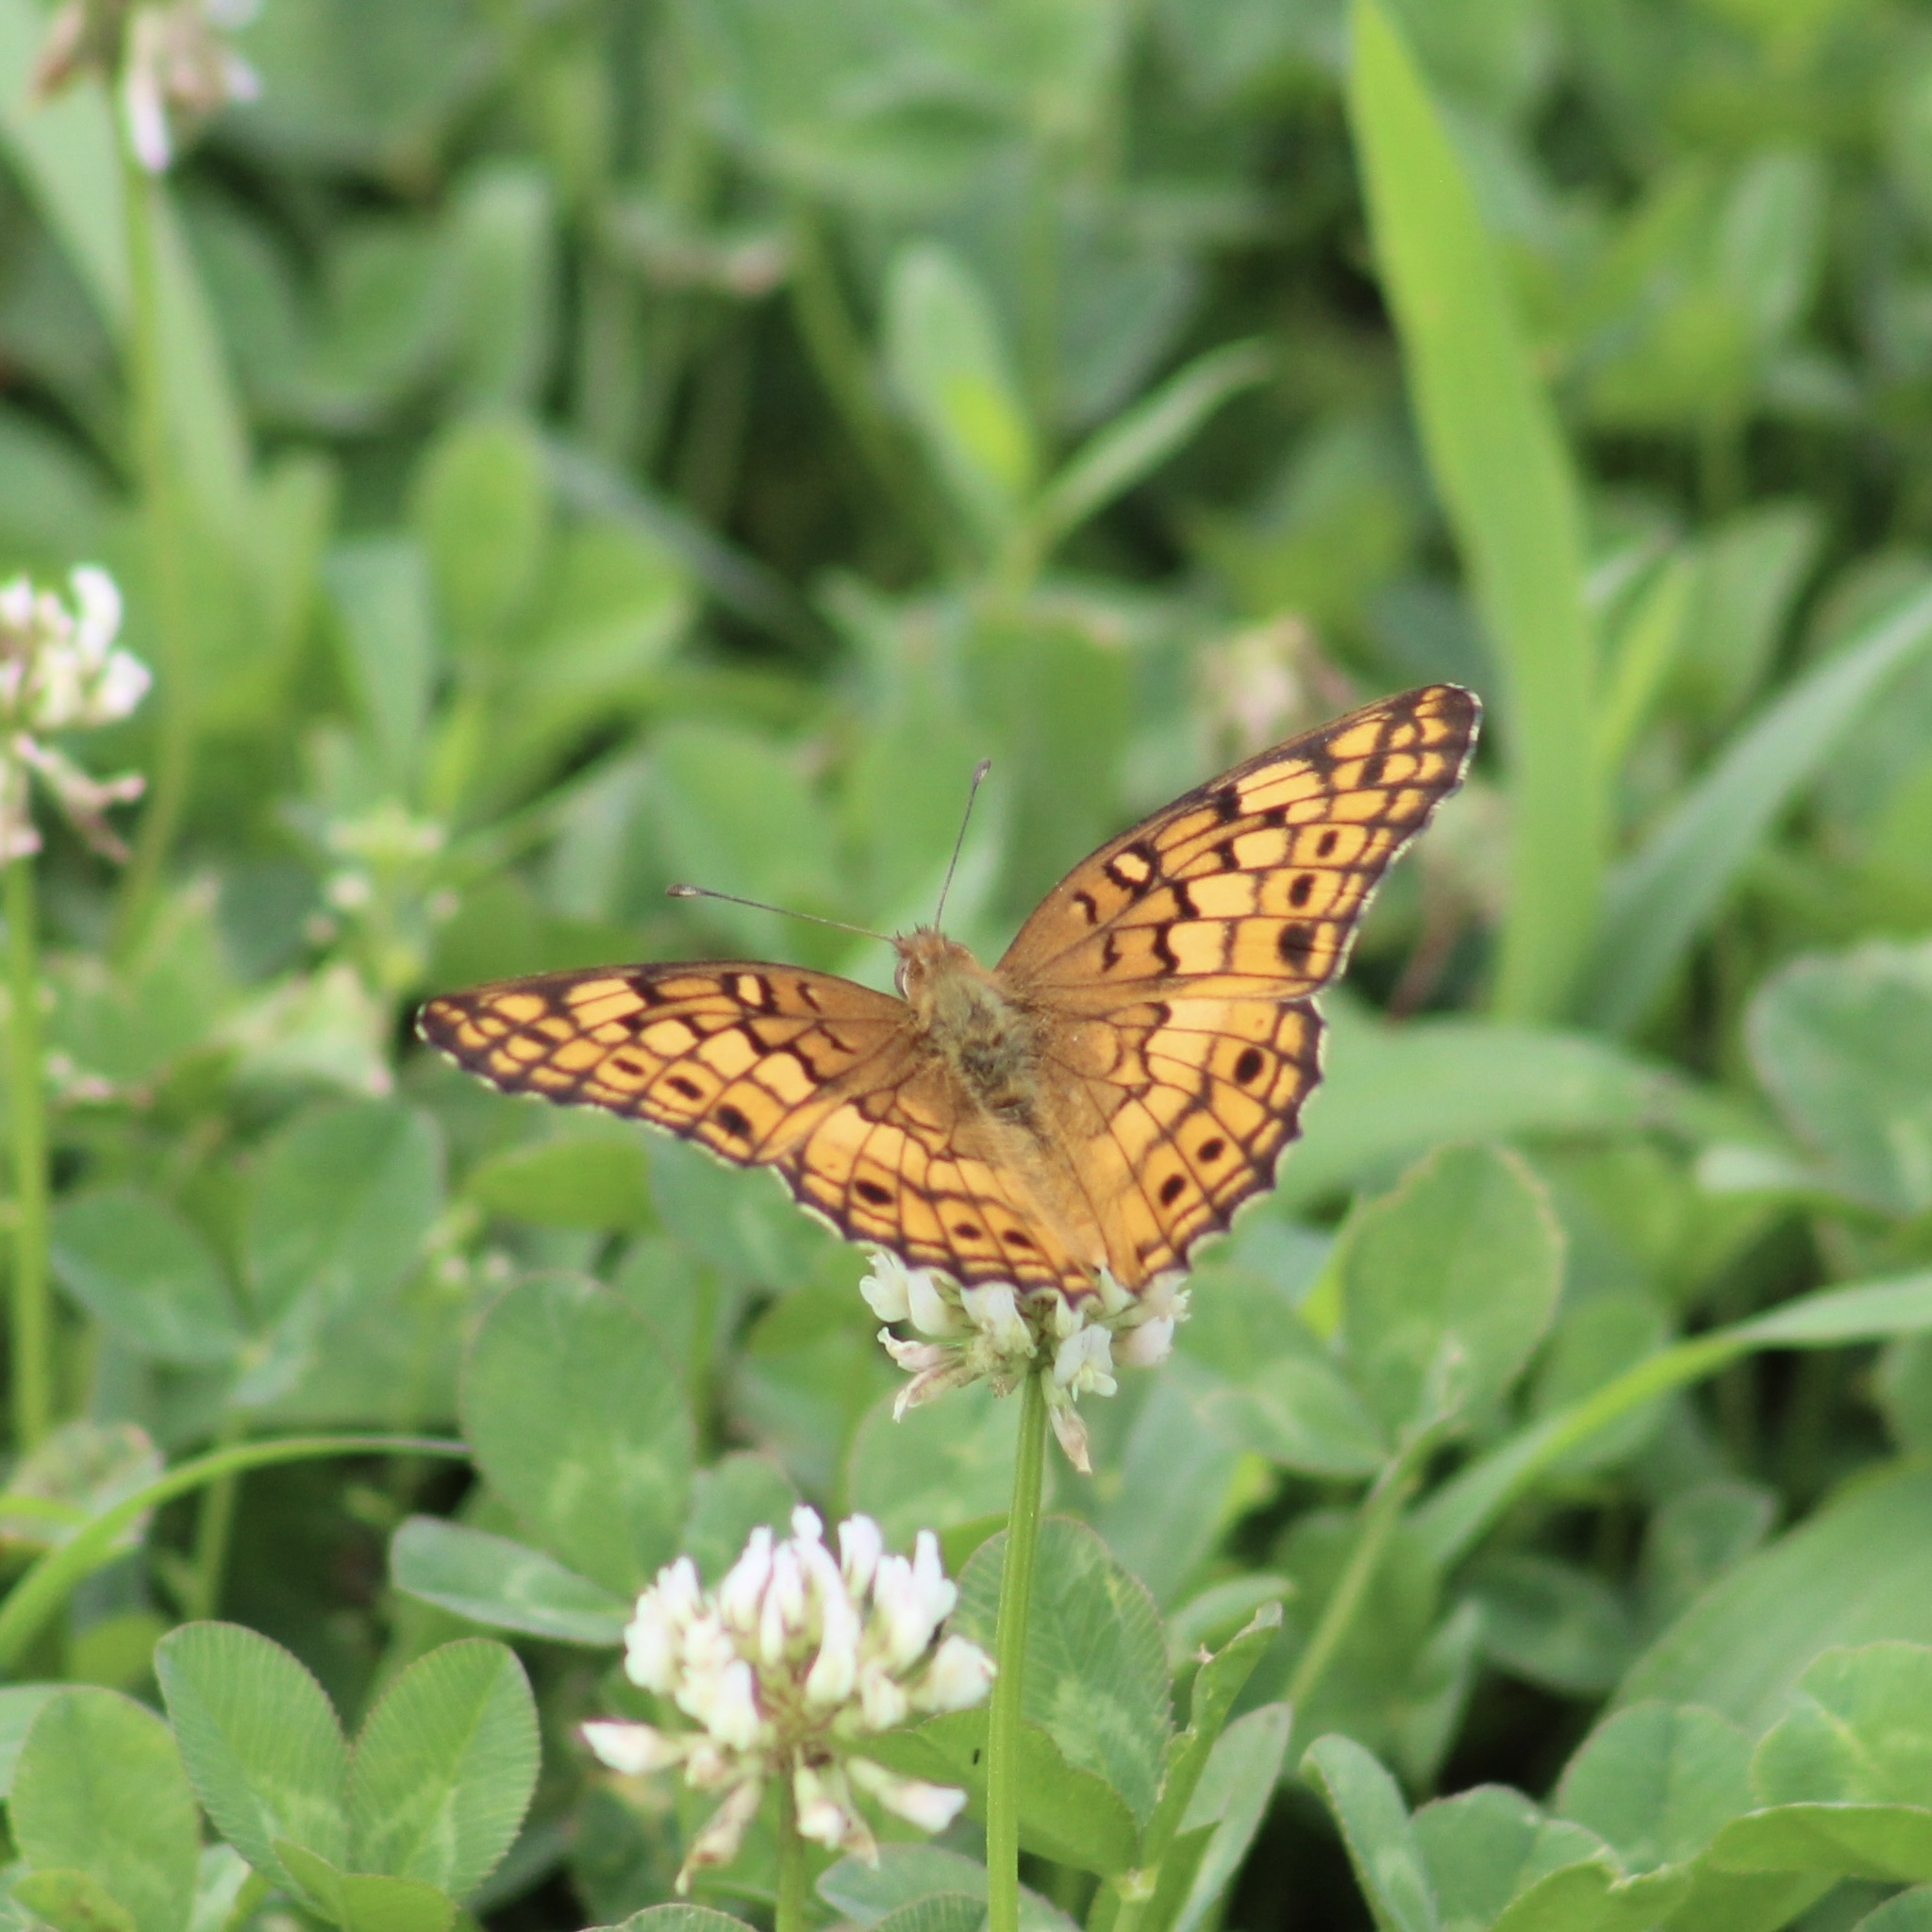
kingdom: Animalia
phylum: Arthropoda
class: Insecta
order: Lepidoptera
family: Nymphalidae
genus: Euptoieta
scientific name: Euptoieta claudia
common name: Variegated fritillary
